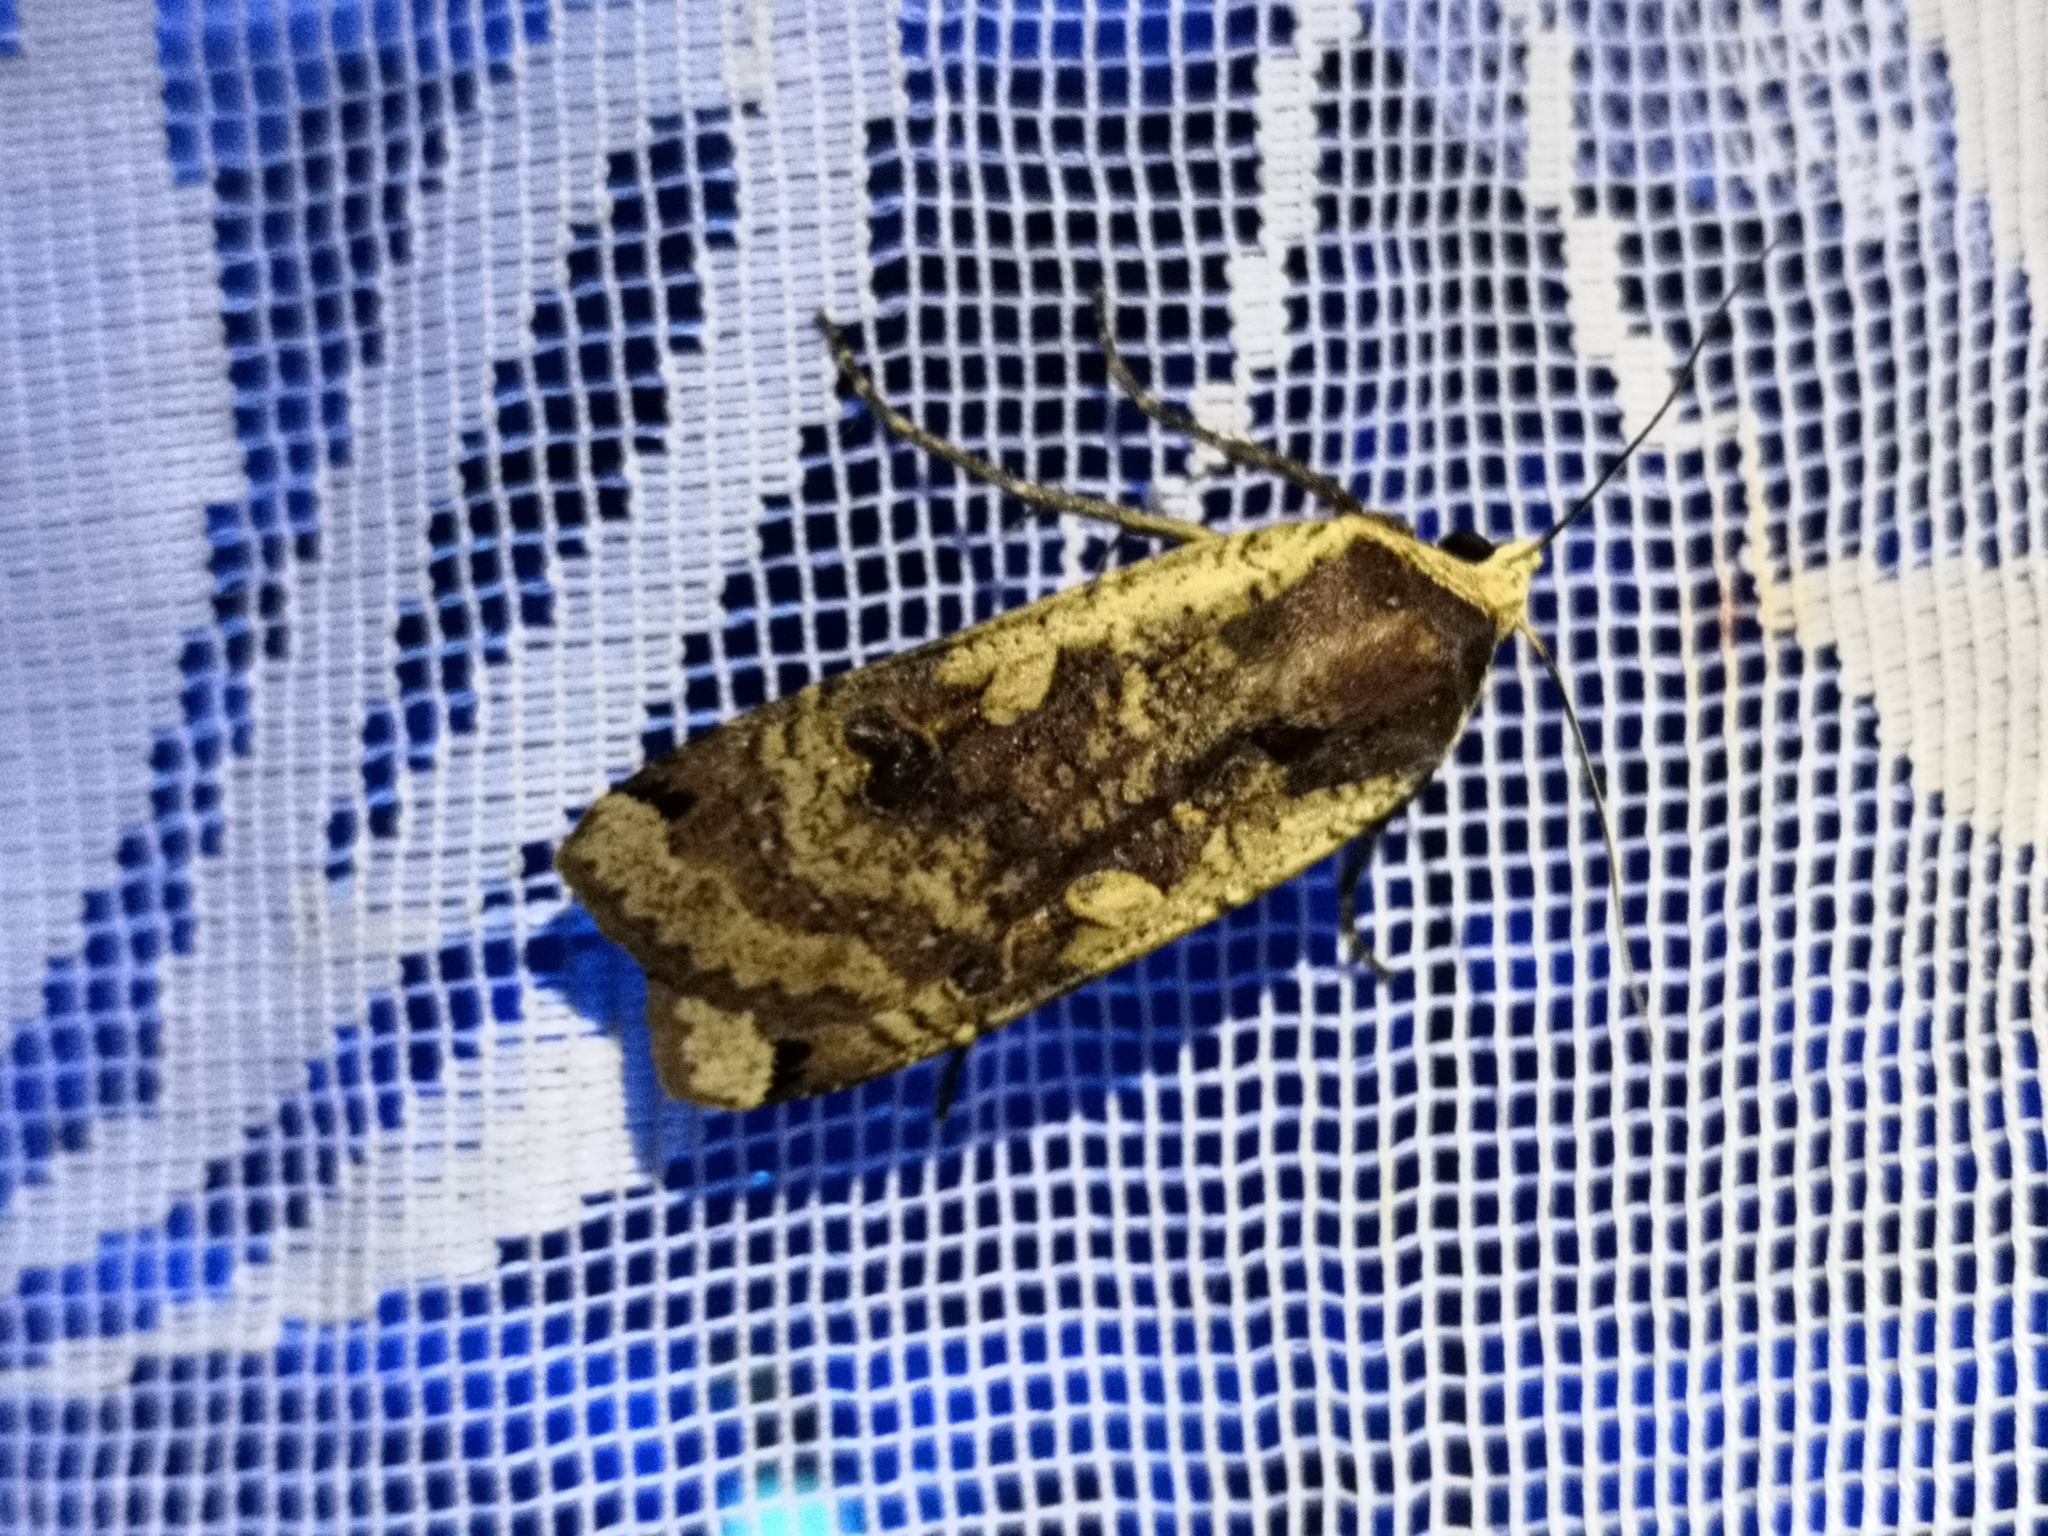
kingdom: Animalia
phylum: Arthropoda
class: Insecta
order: Lepidoptera
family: Noctuidae
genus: Noctua
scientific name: Noctua pronuba
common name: Large yellow underwing
